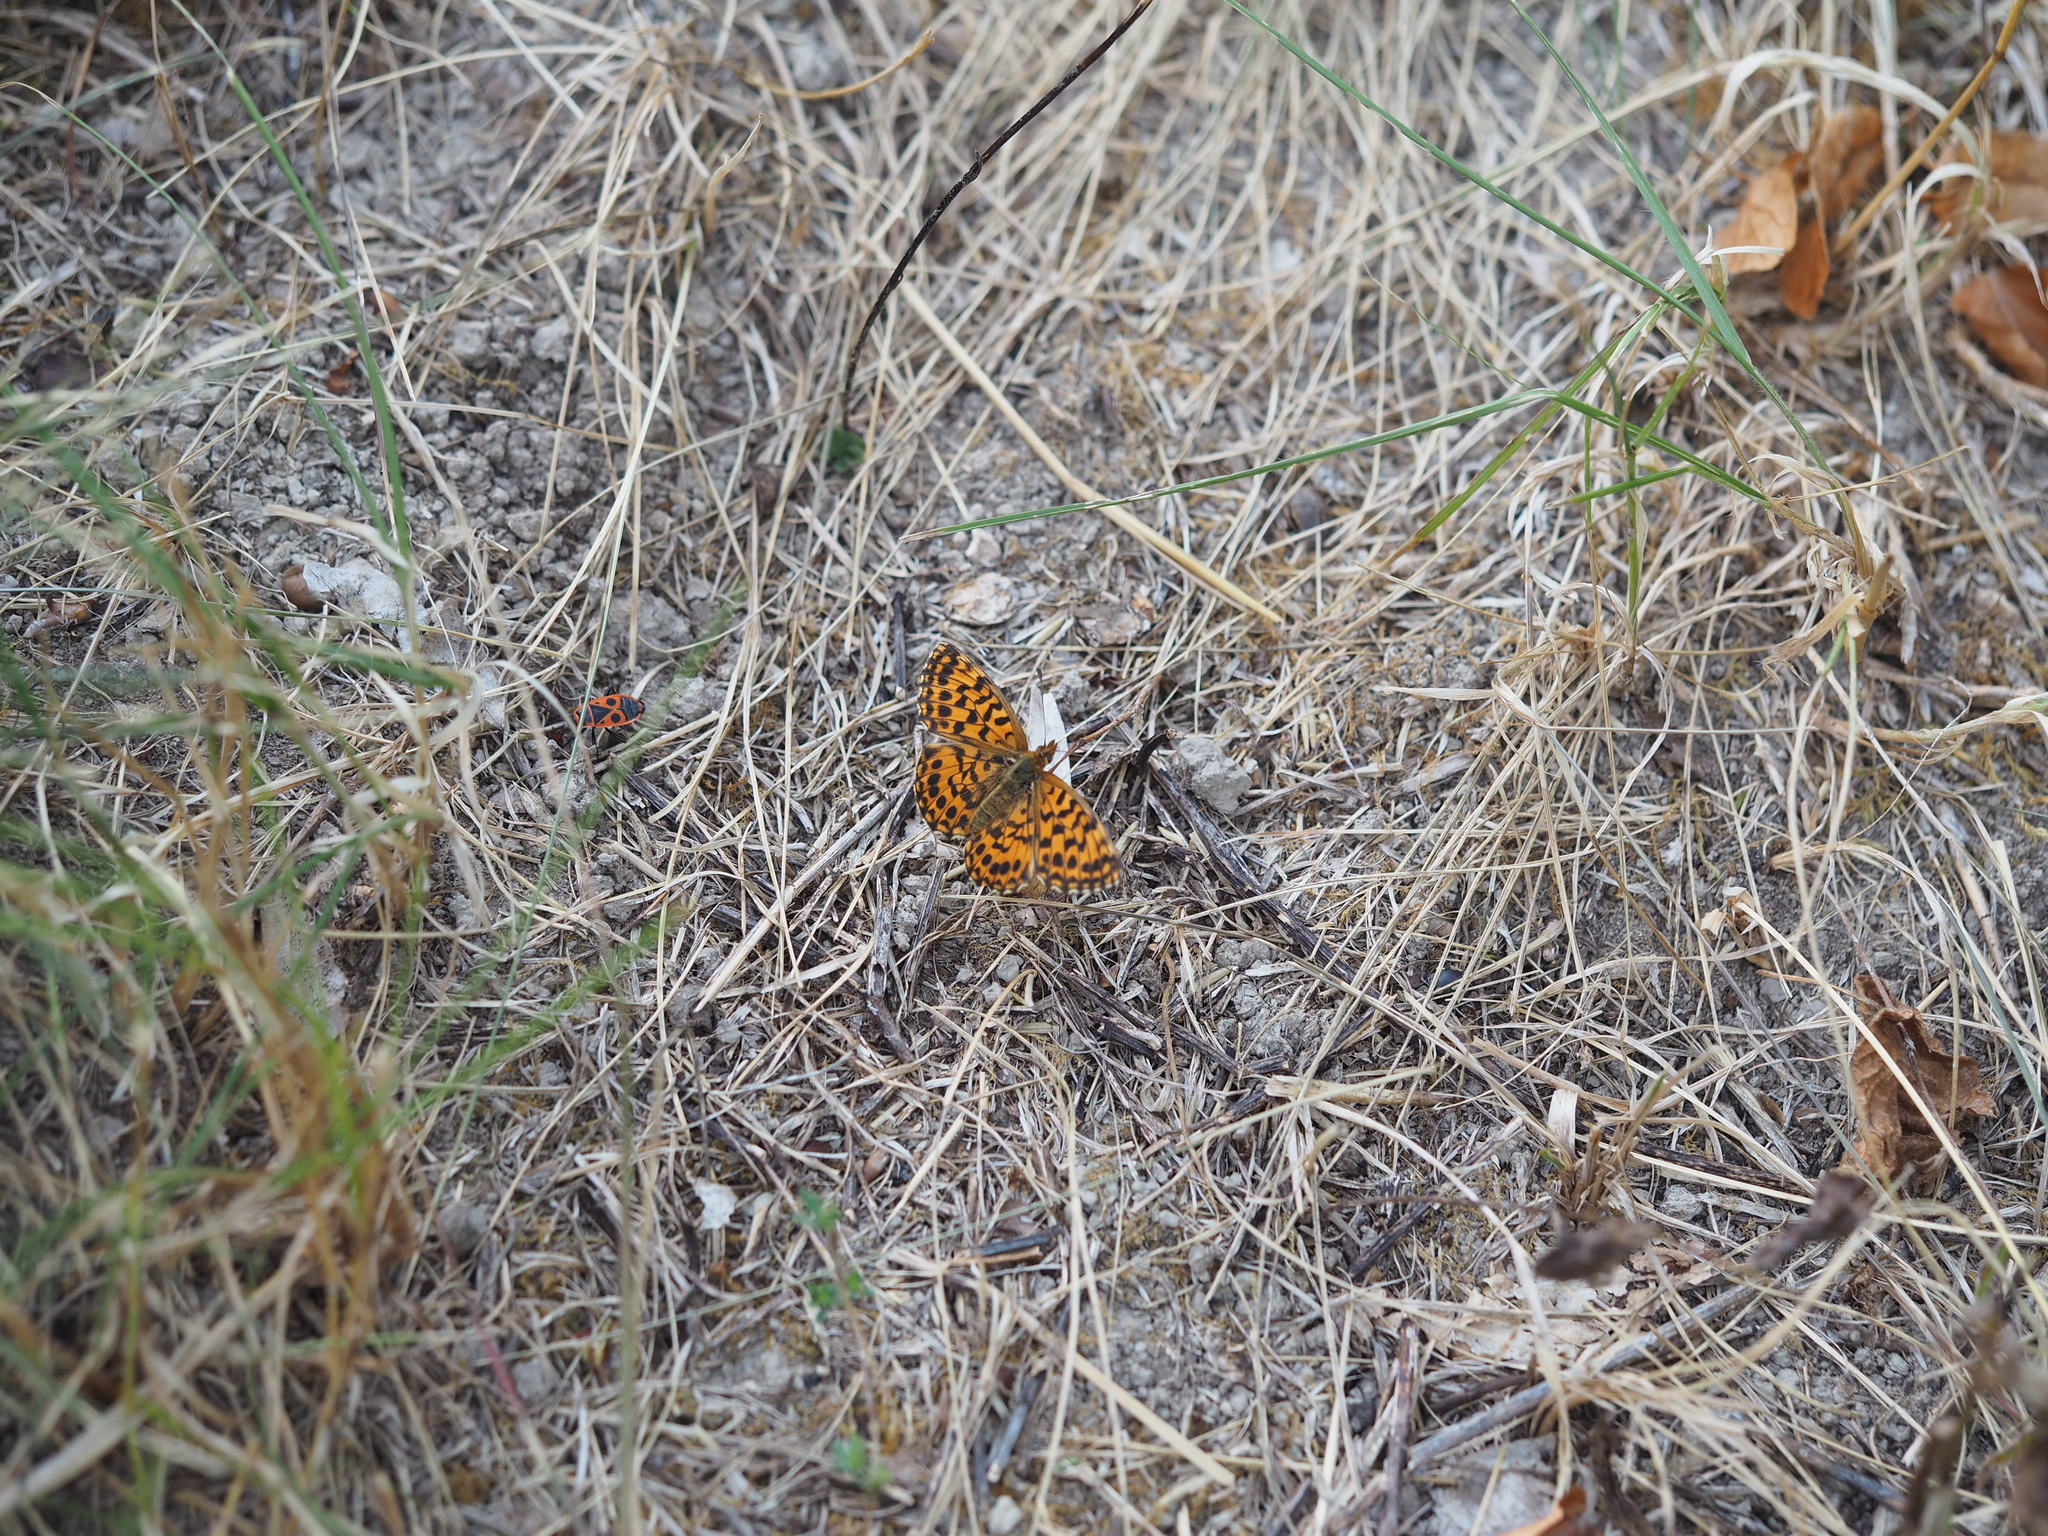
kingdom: Animalia
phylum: Arthropoda
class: Insecta
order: Lepidoptera
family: Nymphalidae
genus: Boloria
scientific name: Boloria dia
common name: Weaver's fritillary
